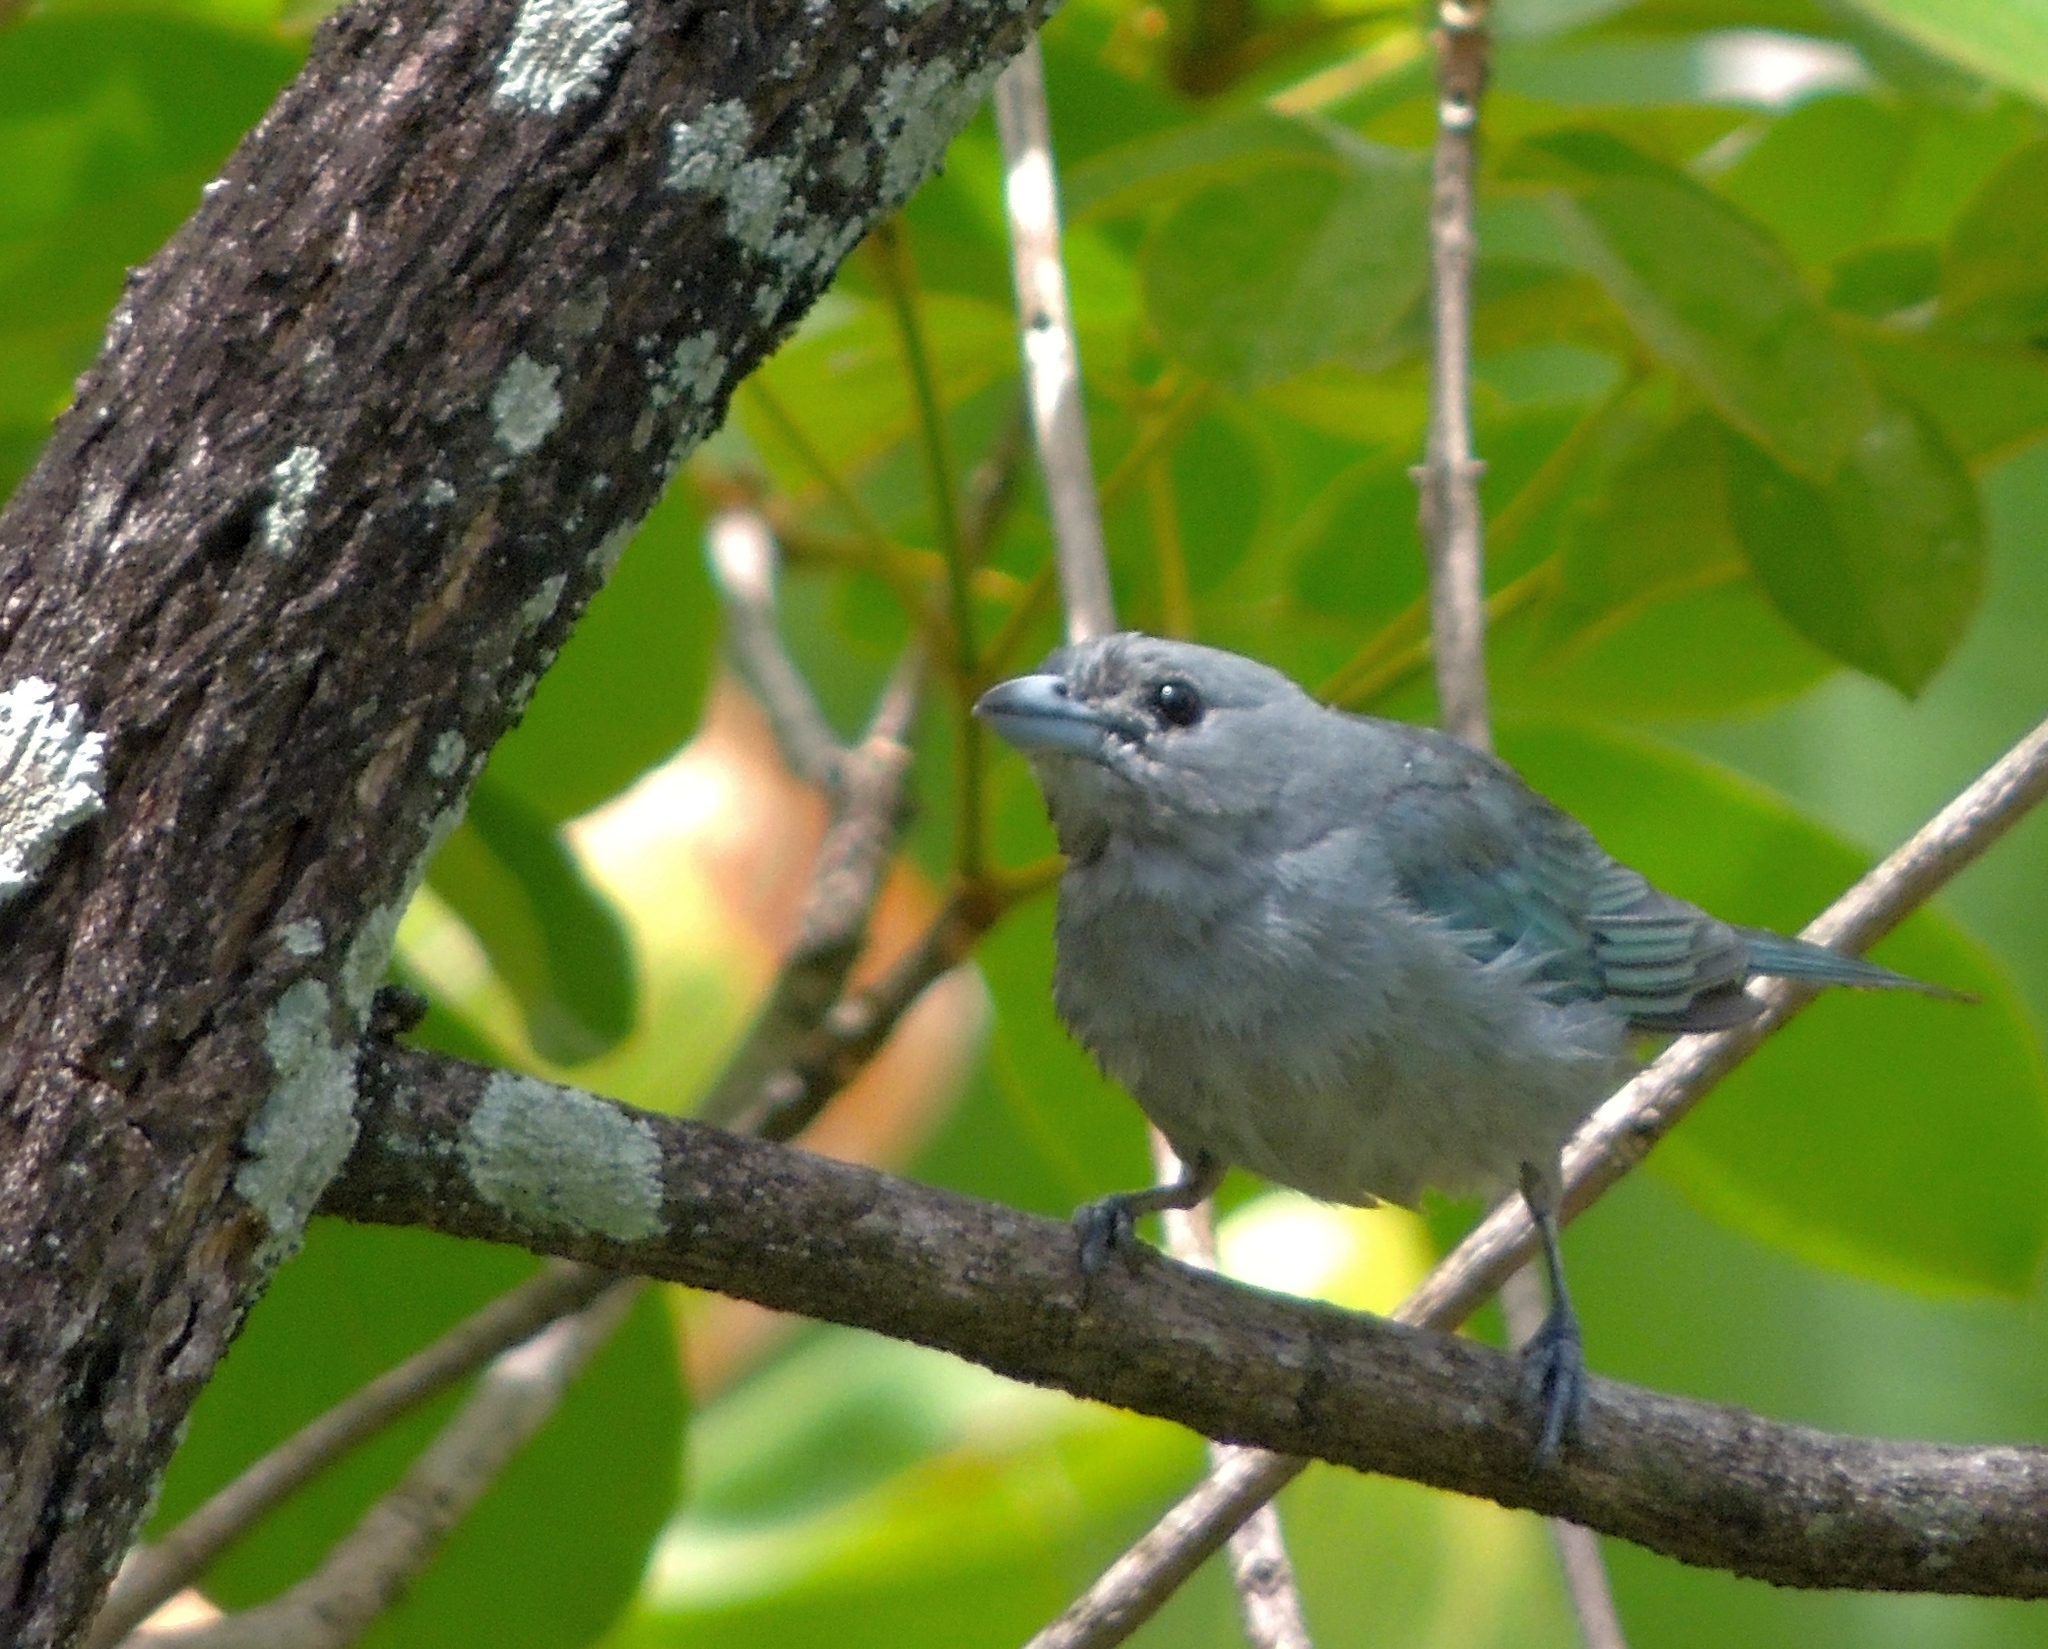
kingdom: Animalia
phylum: Chordata
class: Aves
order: Passeriformes
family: Thraupidae
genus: Thraupis
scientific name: Thraupis sayaca
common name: Sayaca tanager
